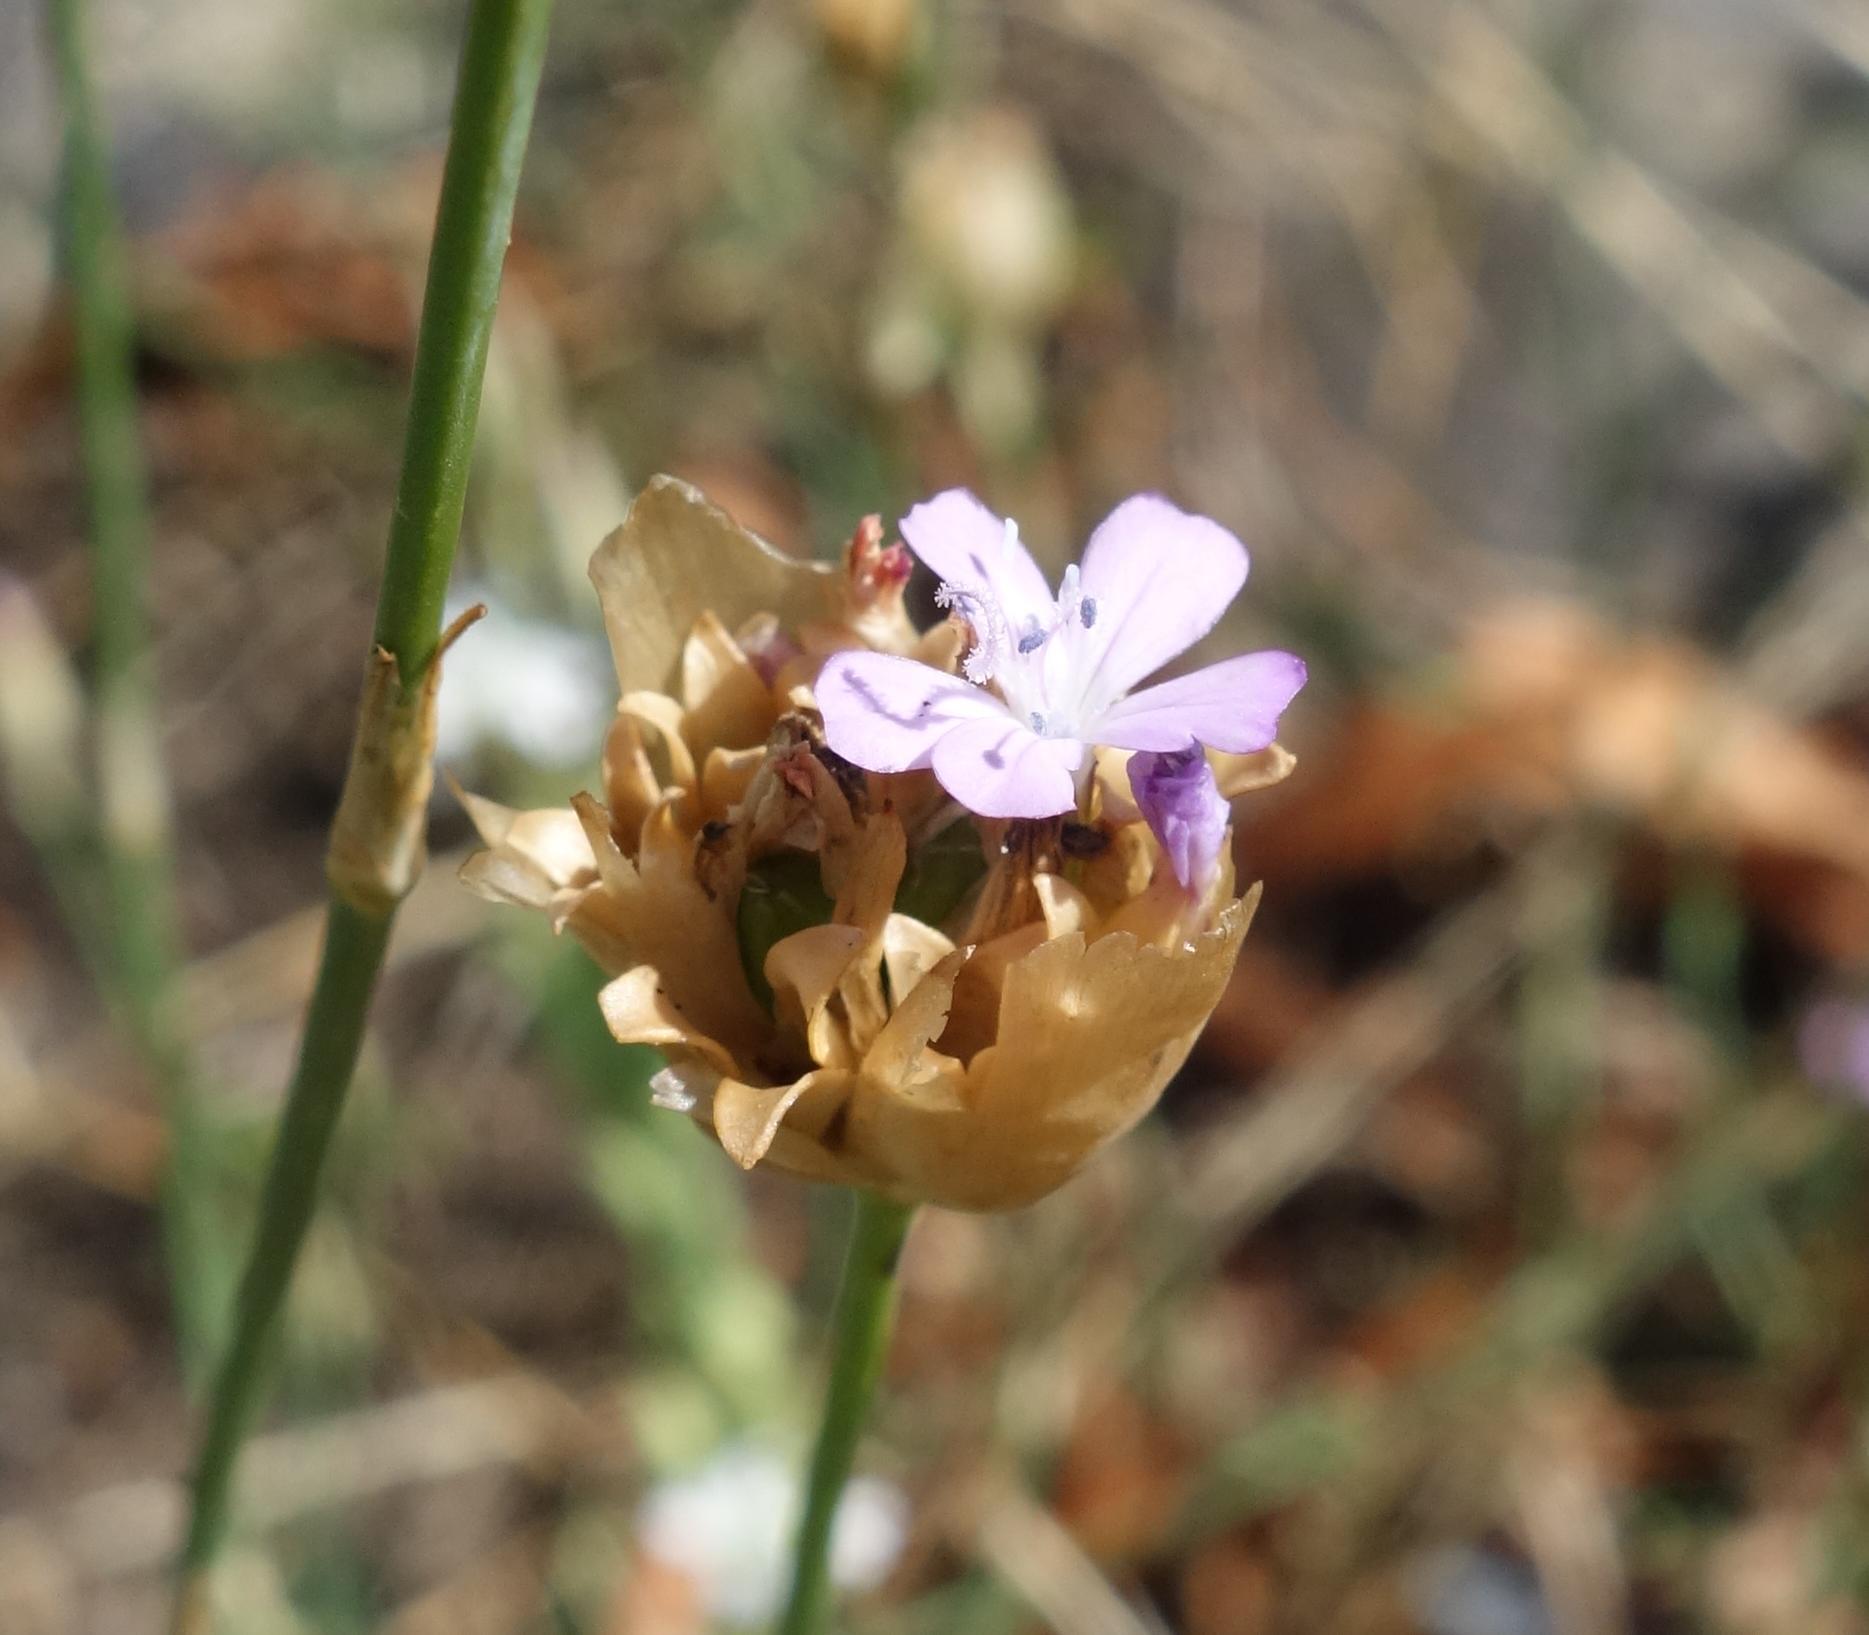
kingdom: Plantae
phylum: Tracheophyta
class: Magnoliopsida
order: Caryophyllales
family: Caryophyllaceae
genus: Petrorhagia
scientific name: Petrorhagia prolifera
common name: Proliferous pink
